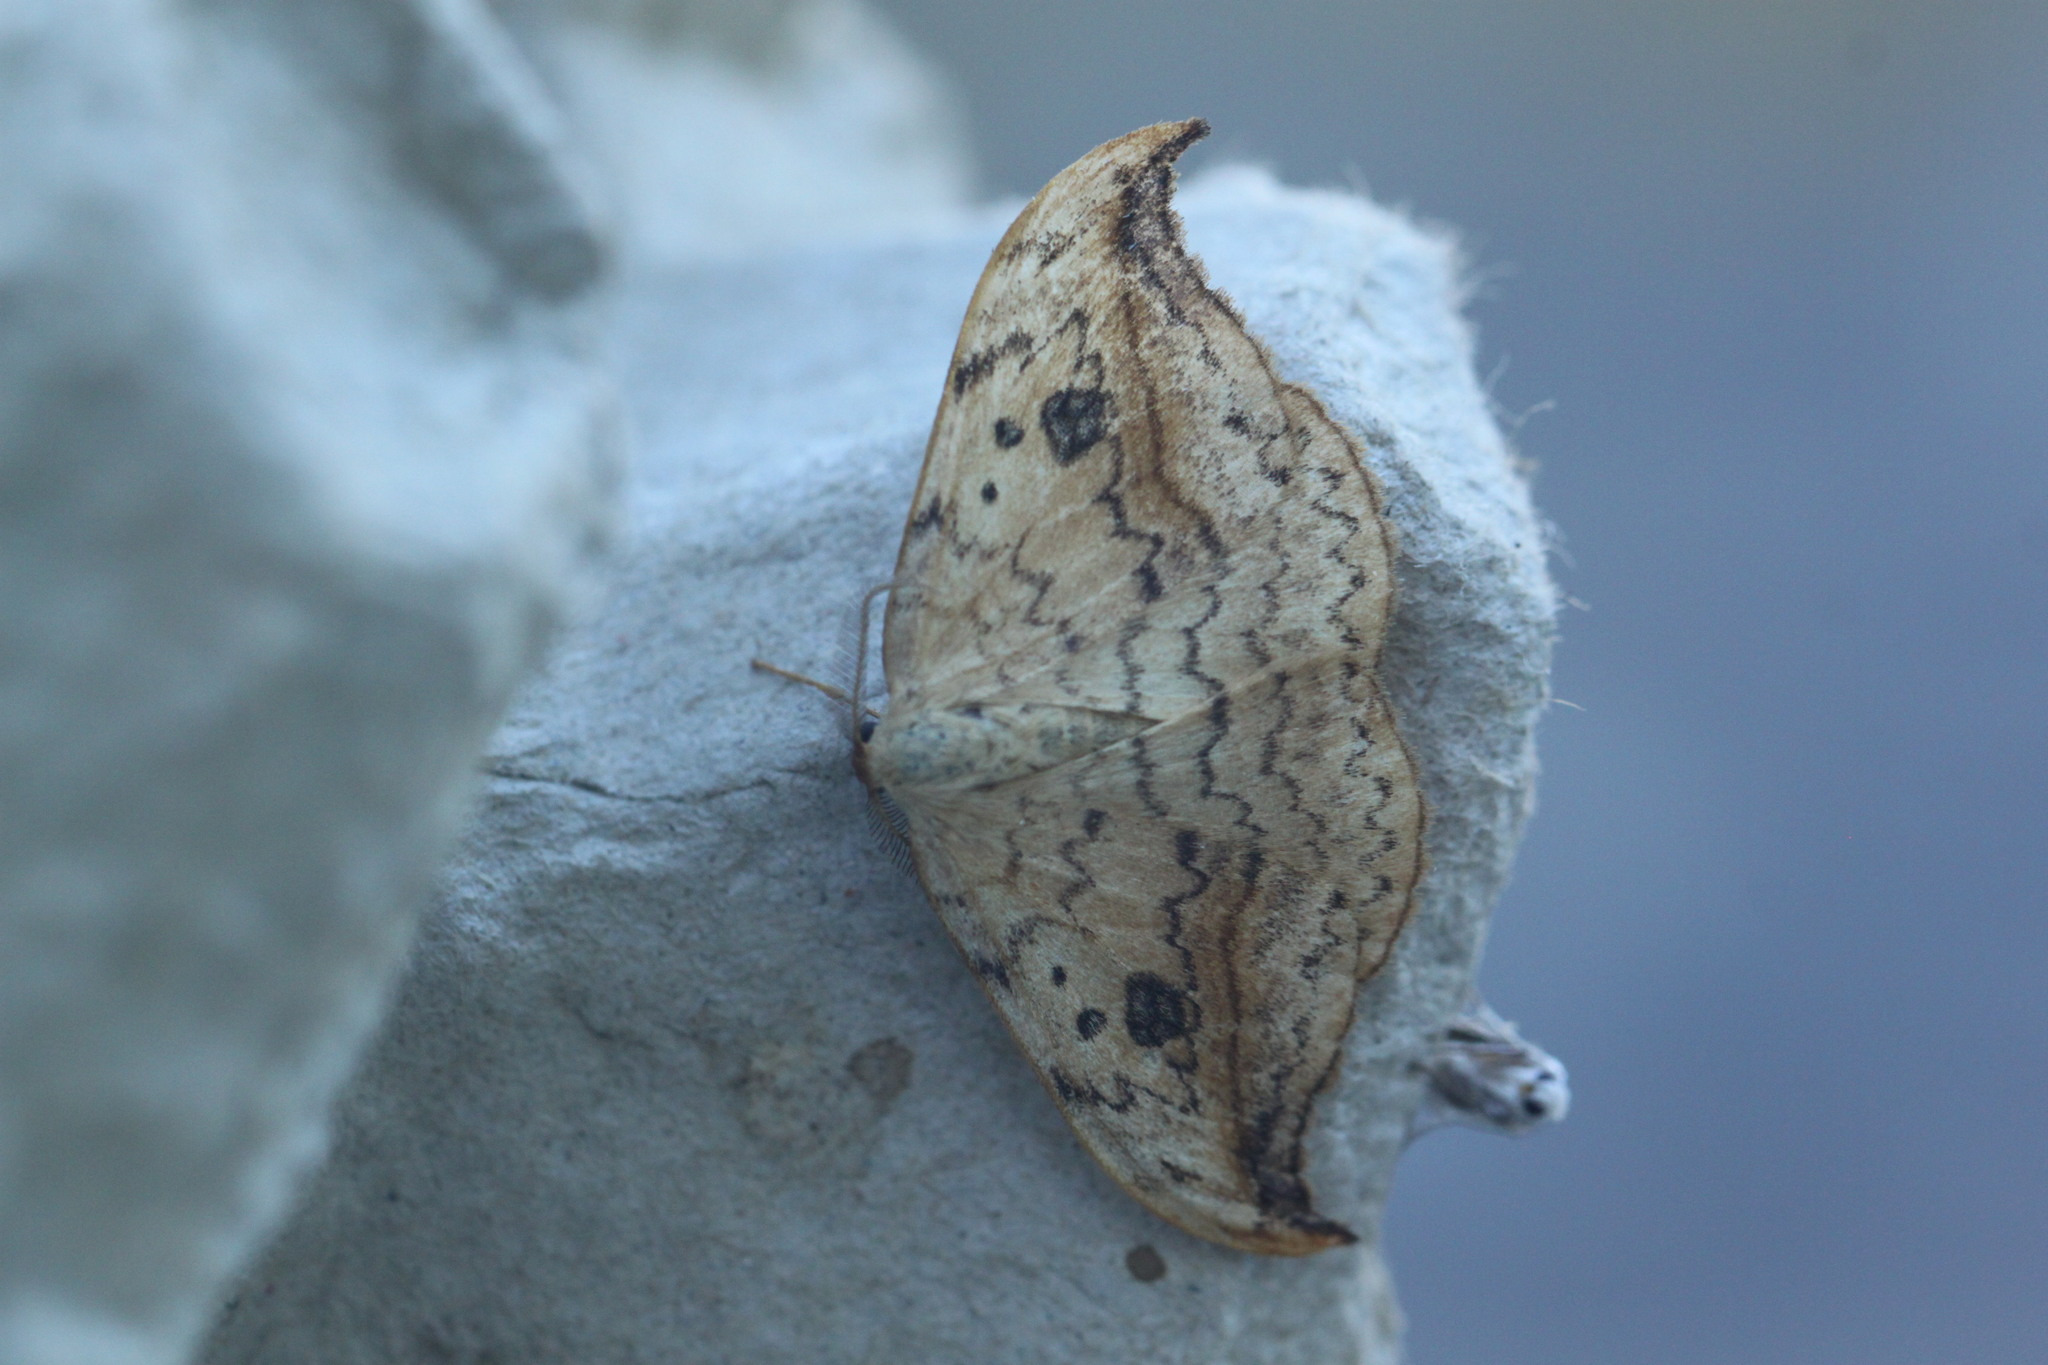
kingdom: Animalia
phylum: Arthropoda
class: Insecta
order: Lepidoptera
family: Drepanidae
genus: Drepana
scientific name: Drepana falcataria
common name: Pebble hook-tip
